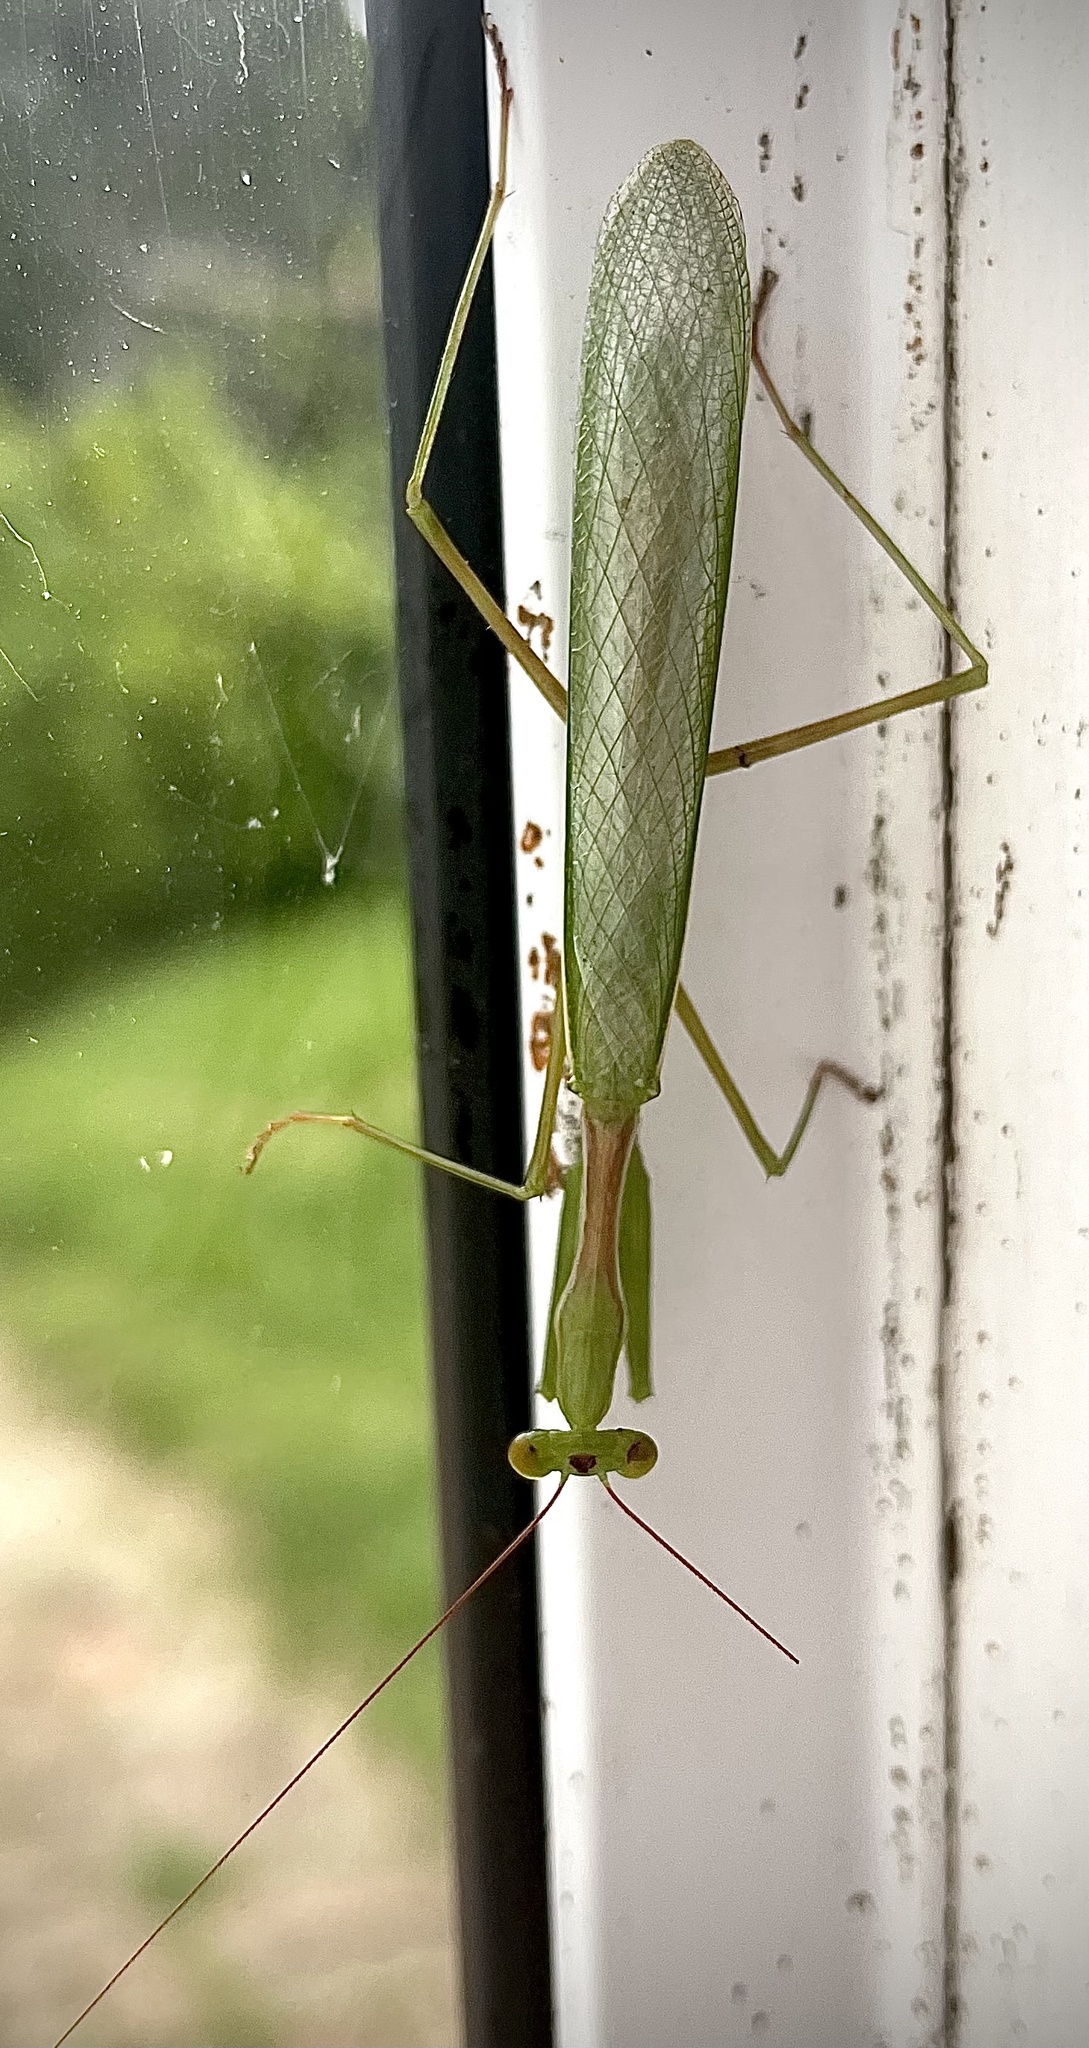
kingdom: Animalia
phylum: Arthropoda
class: Insecta
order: Mantodea
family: Miomantidae
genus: Miomantis
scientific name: Miomantis caffra
